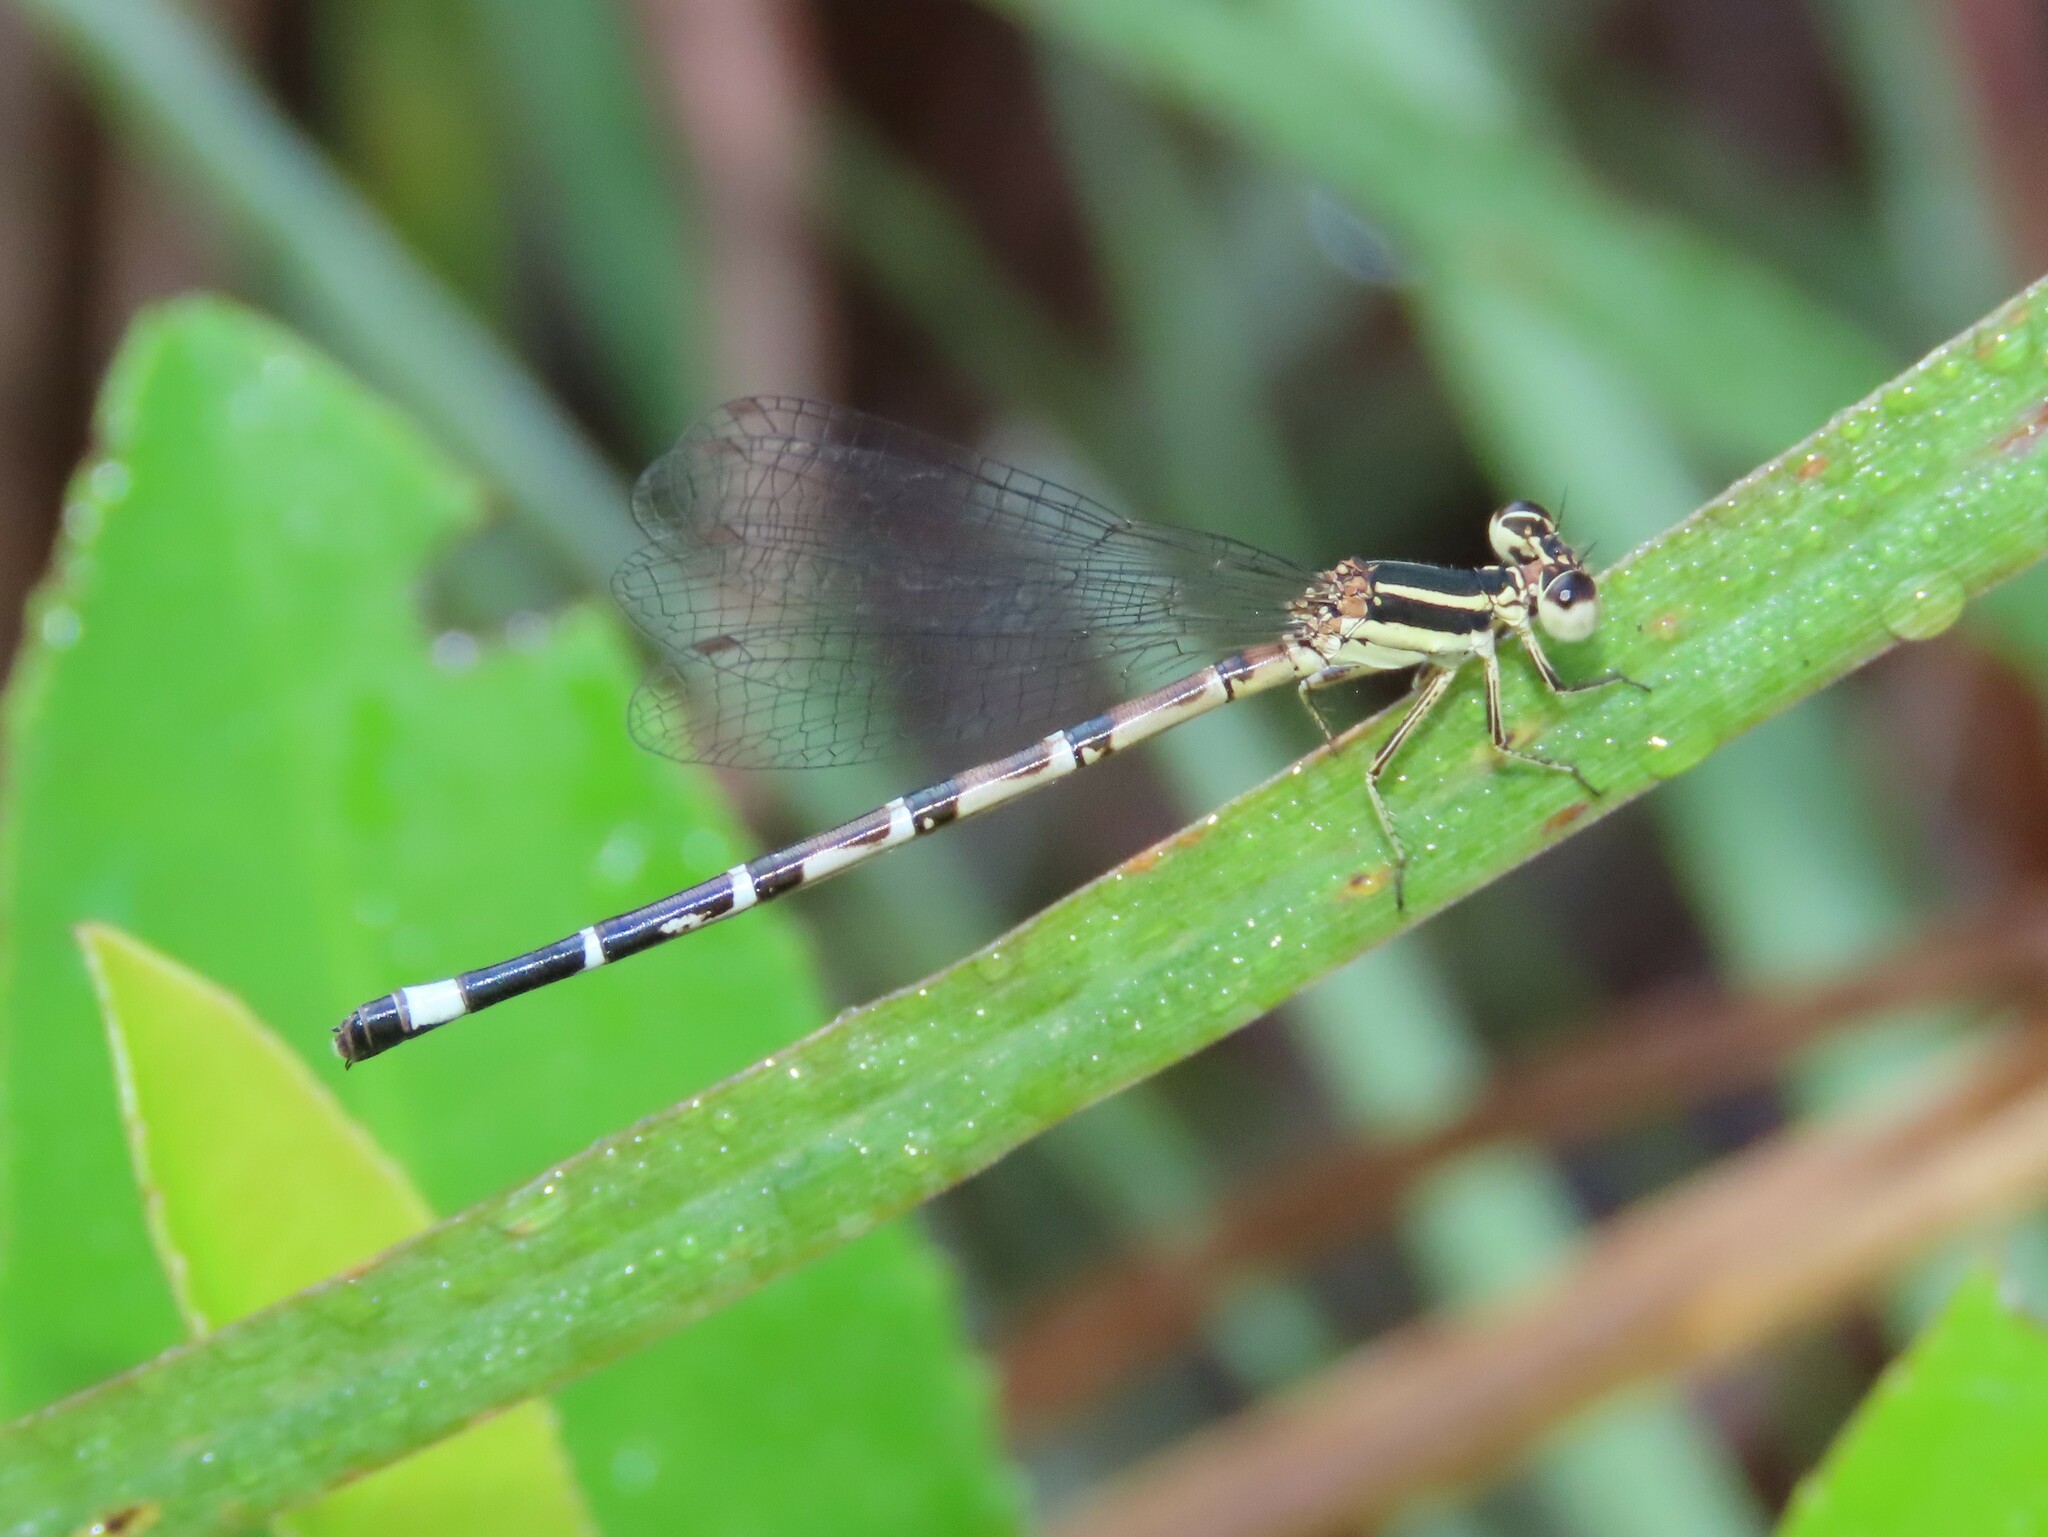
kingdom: Animalia
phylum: Arthropoda
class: Insecta
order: Odonata
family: Coenagrionidae
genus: Argia
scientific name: Argia bipunctulata
